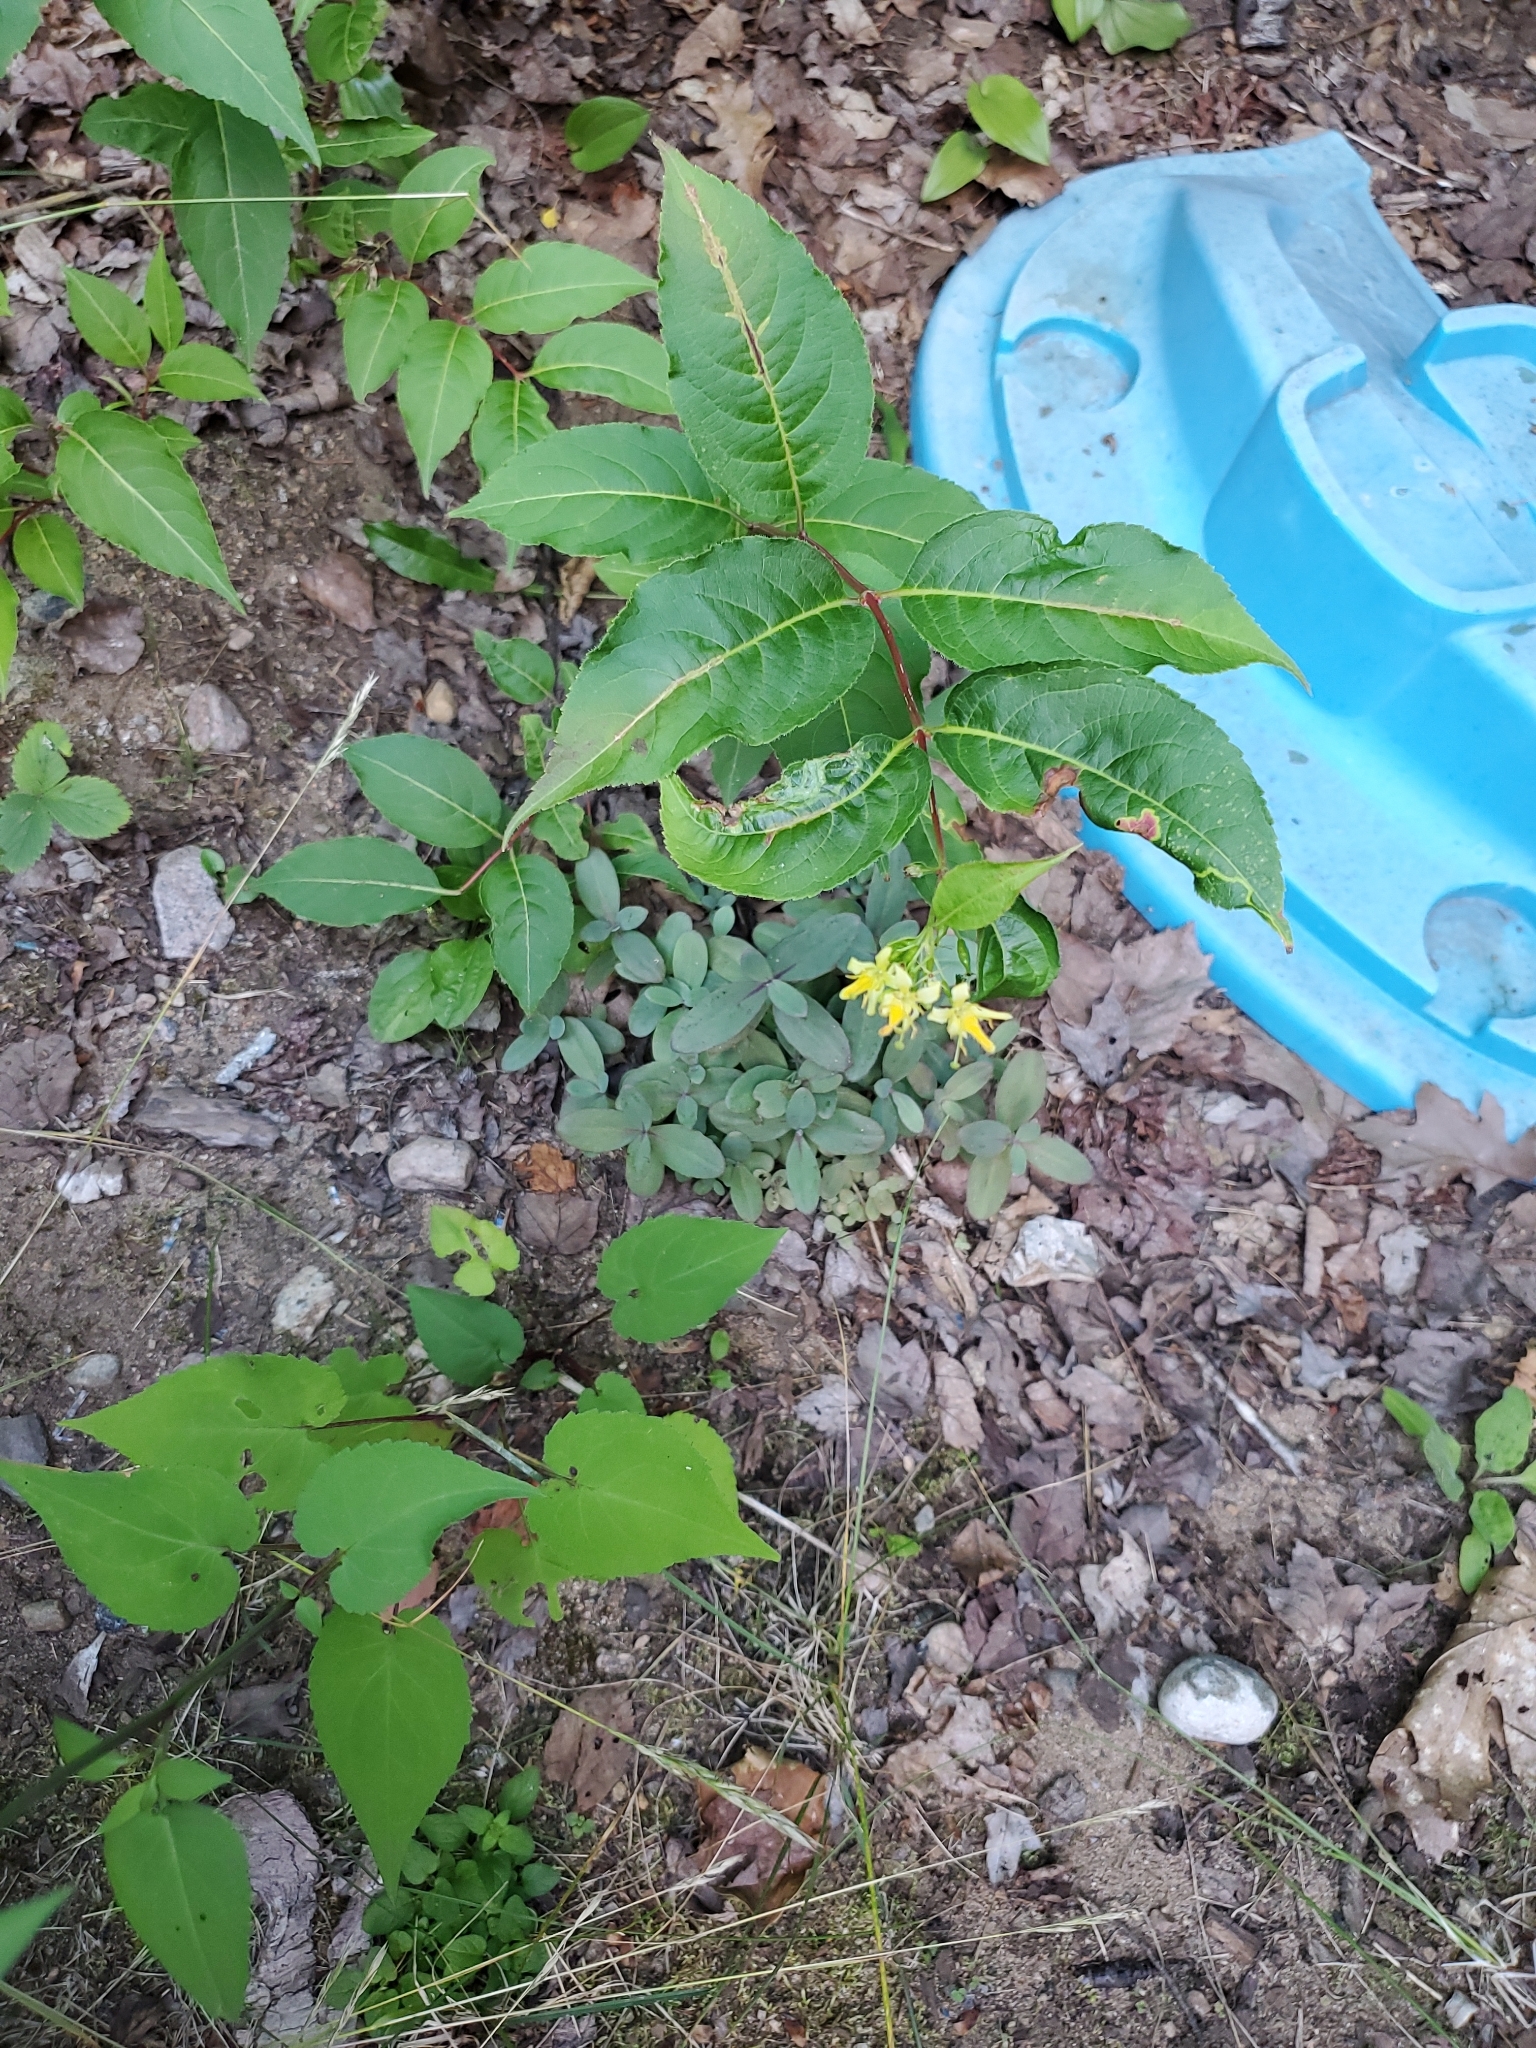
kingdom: Plantae
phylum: Tracheophyta
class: Magnoliopsida
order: Dipsacales
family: Caprifoliaceae
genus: Diervilla
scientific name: Diervilla lonicera
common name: Bush-honeysuckle
